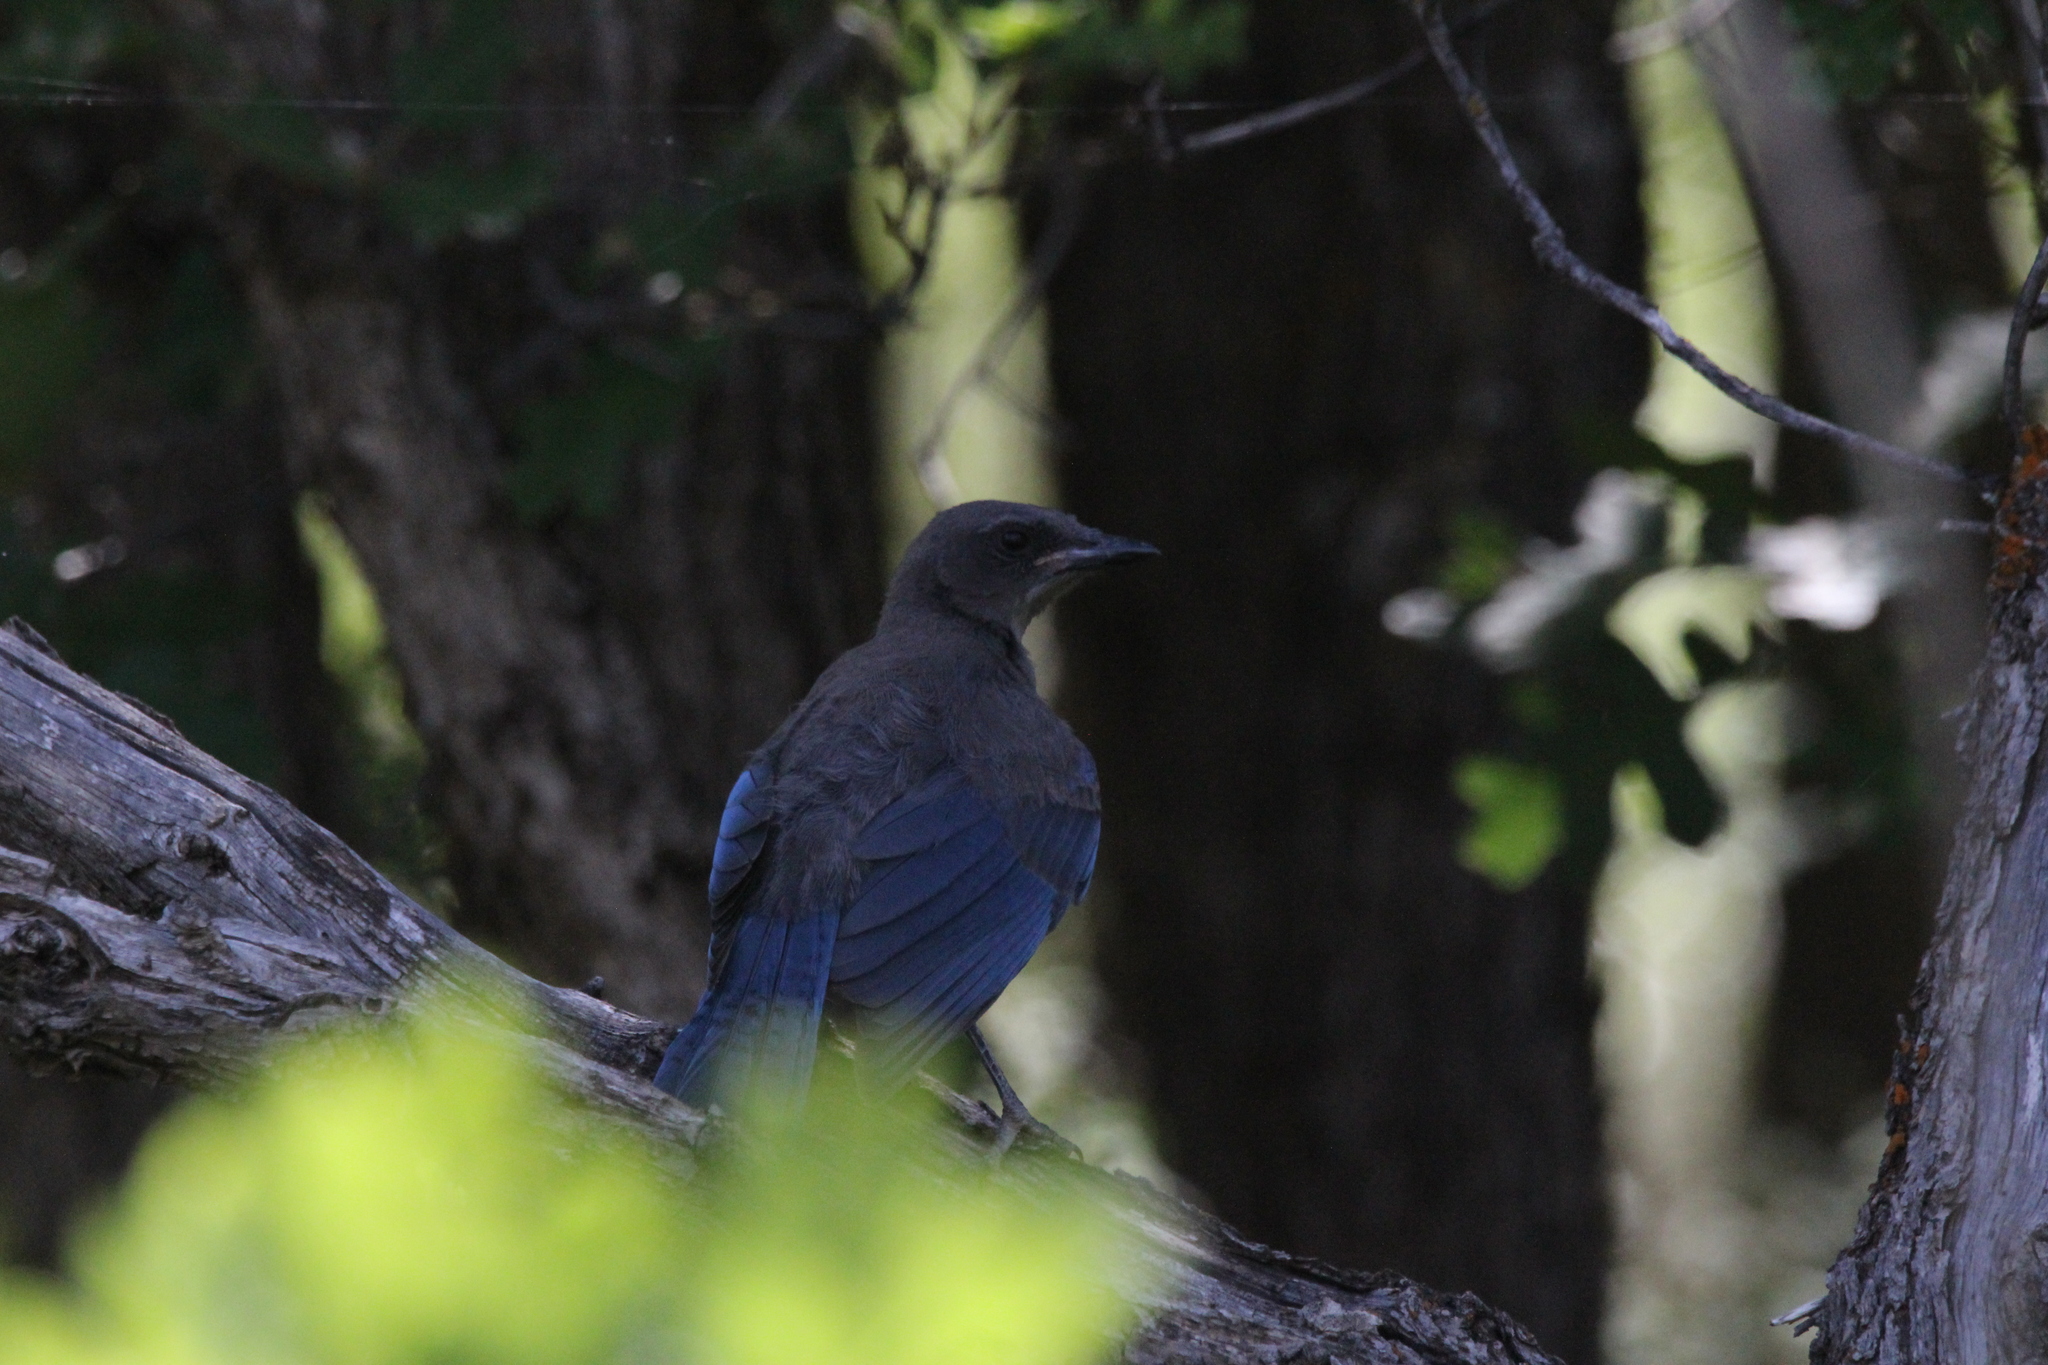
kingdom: Animalia
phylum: Chordata
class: Aves
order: Passeriformes
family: Corvidae
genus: Aphelocoma
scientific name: Aphelocoma woodhouseii
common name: Woodhouse's scrub-jay
